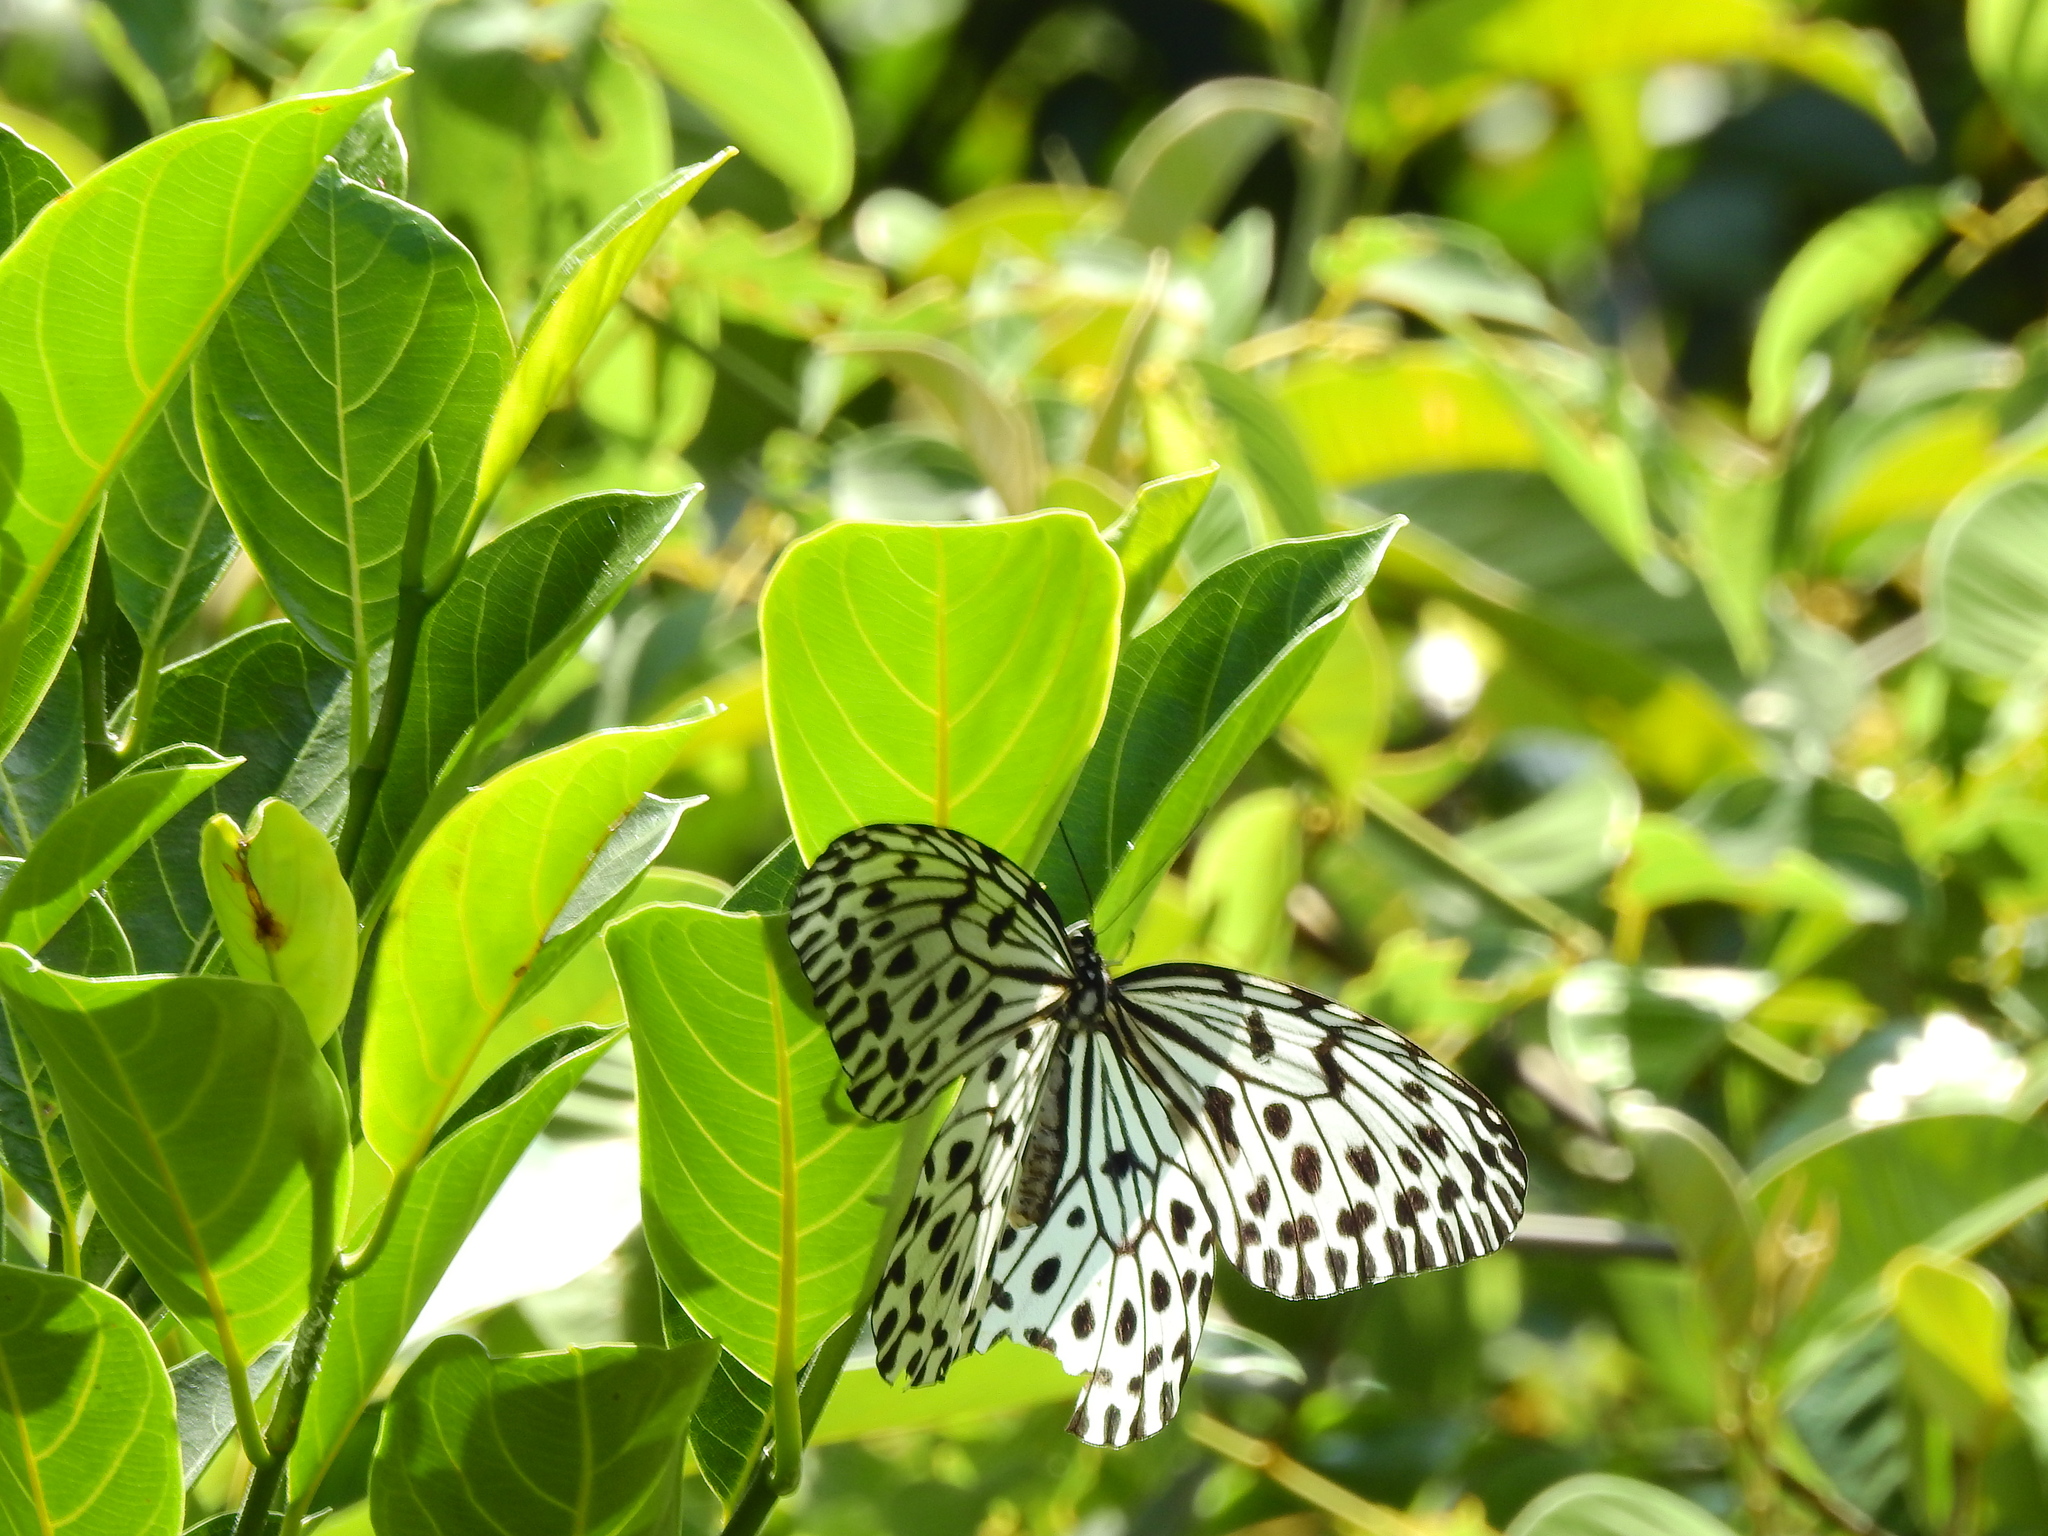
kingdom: Animalia
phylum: Arthropoda
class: Insecta
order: Lepidoptera
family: Nymphalidae
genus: Idea
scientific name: Idea malabarica
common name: Malabar tree-nymph
